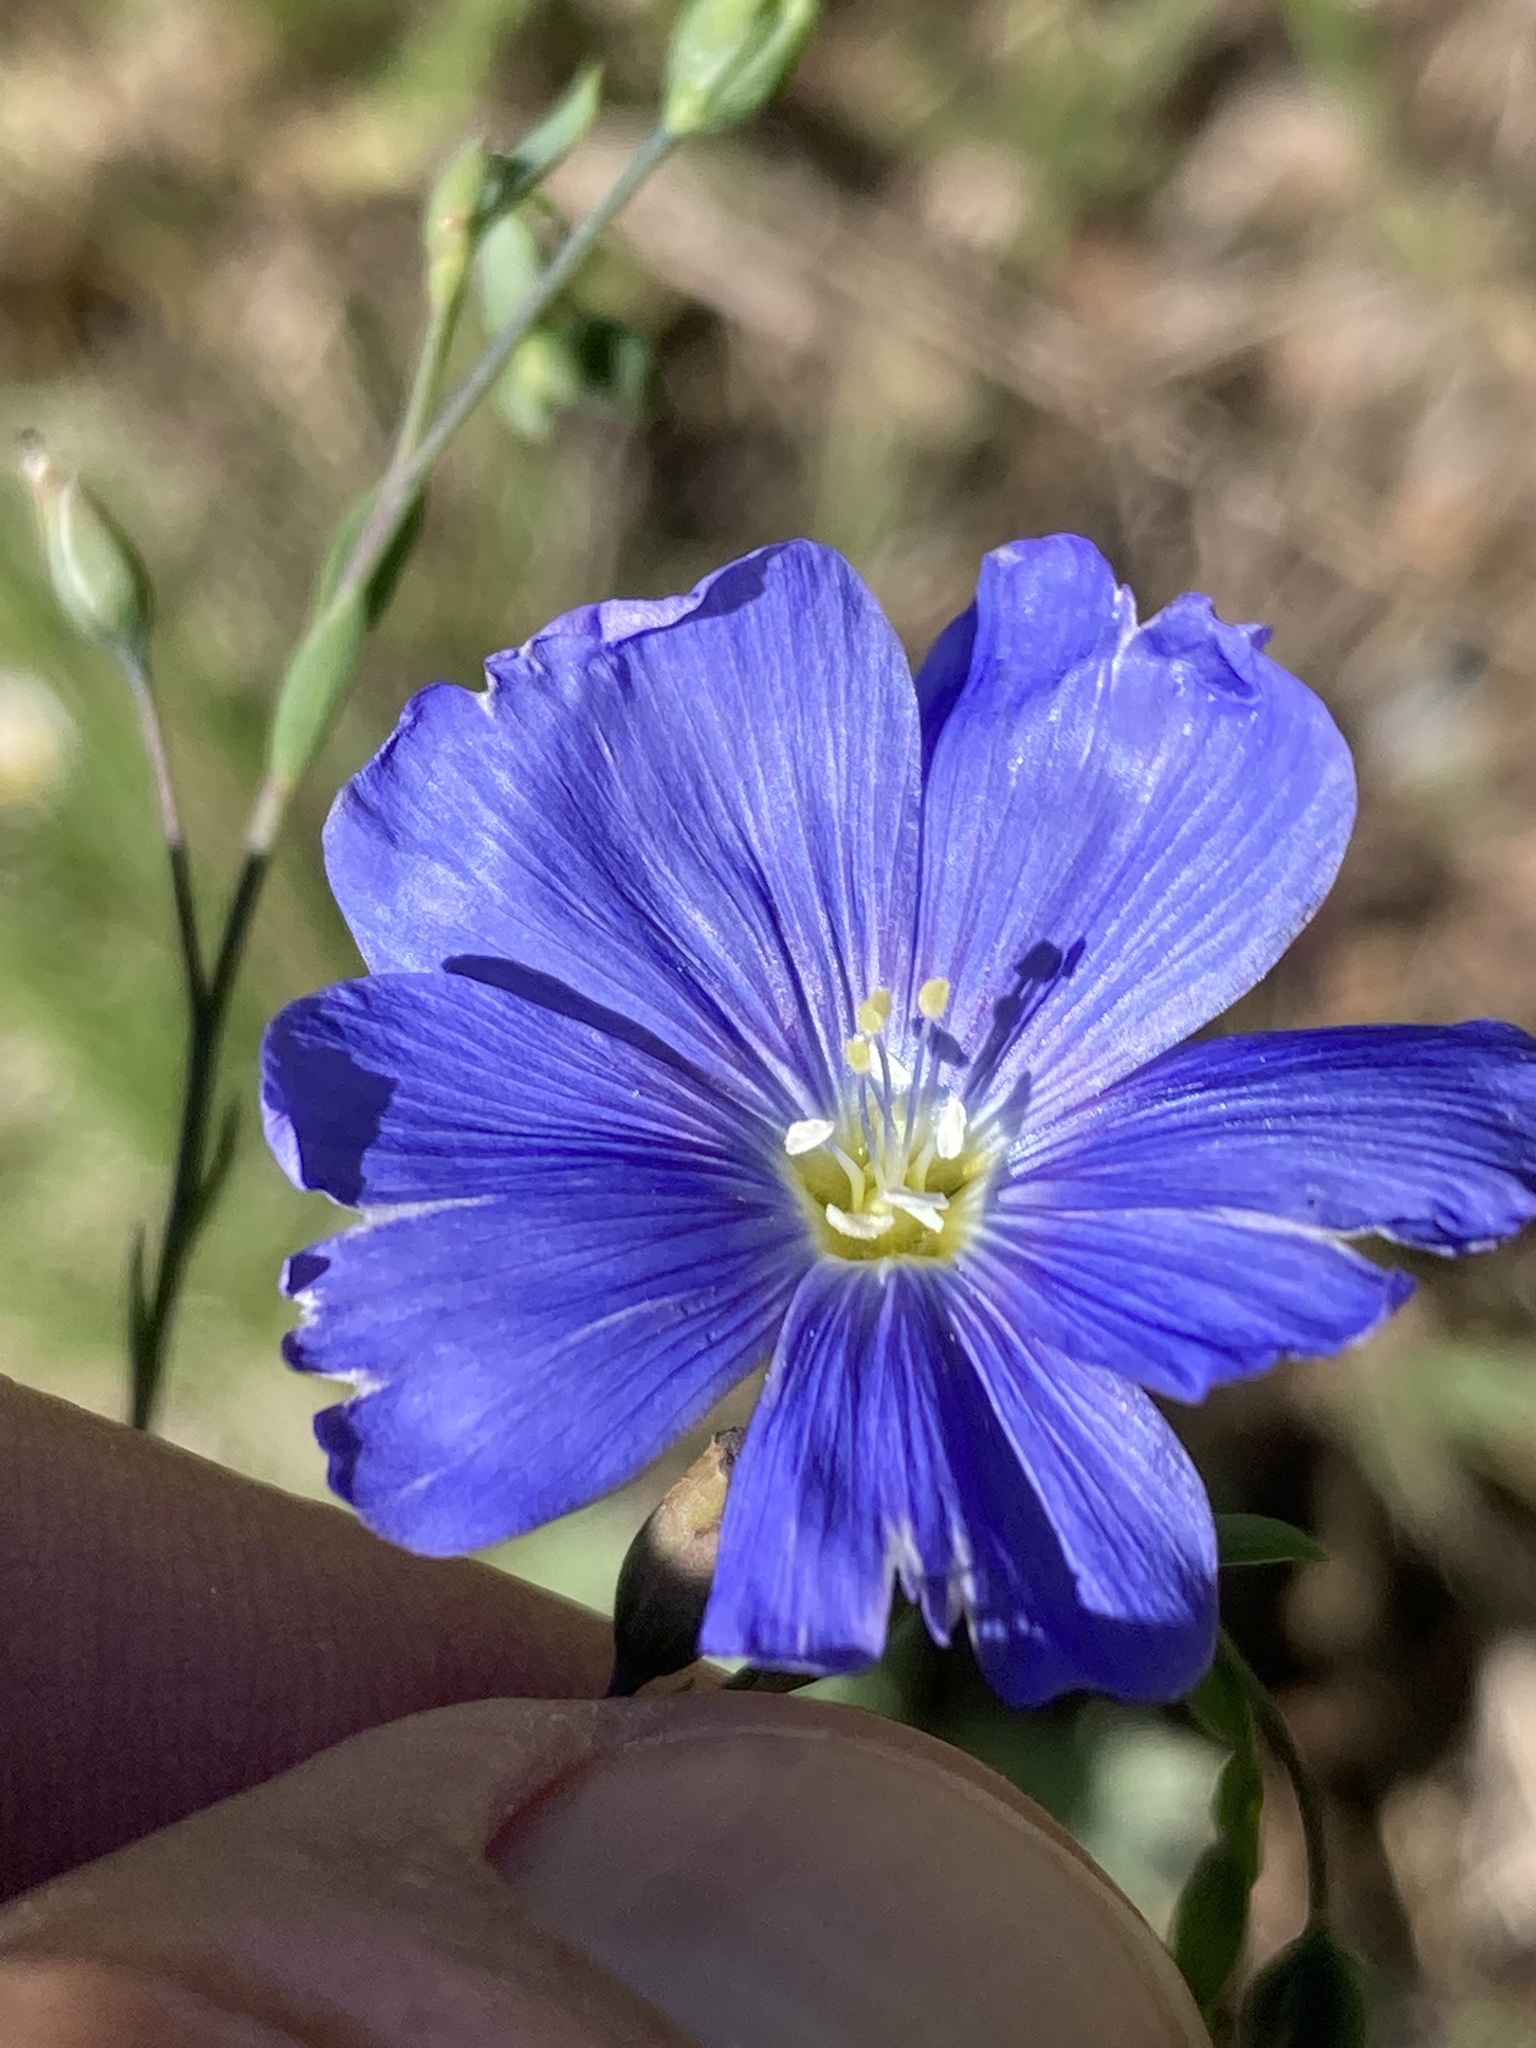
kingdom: Plantae
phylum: Tracheophyta
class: Magnoliopsida
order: Malpighiales
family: Linaceae
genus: Linum
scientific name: Linum lewisii
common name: Prairie flax
